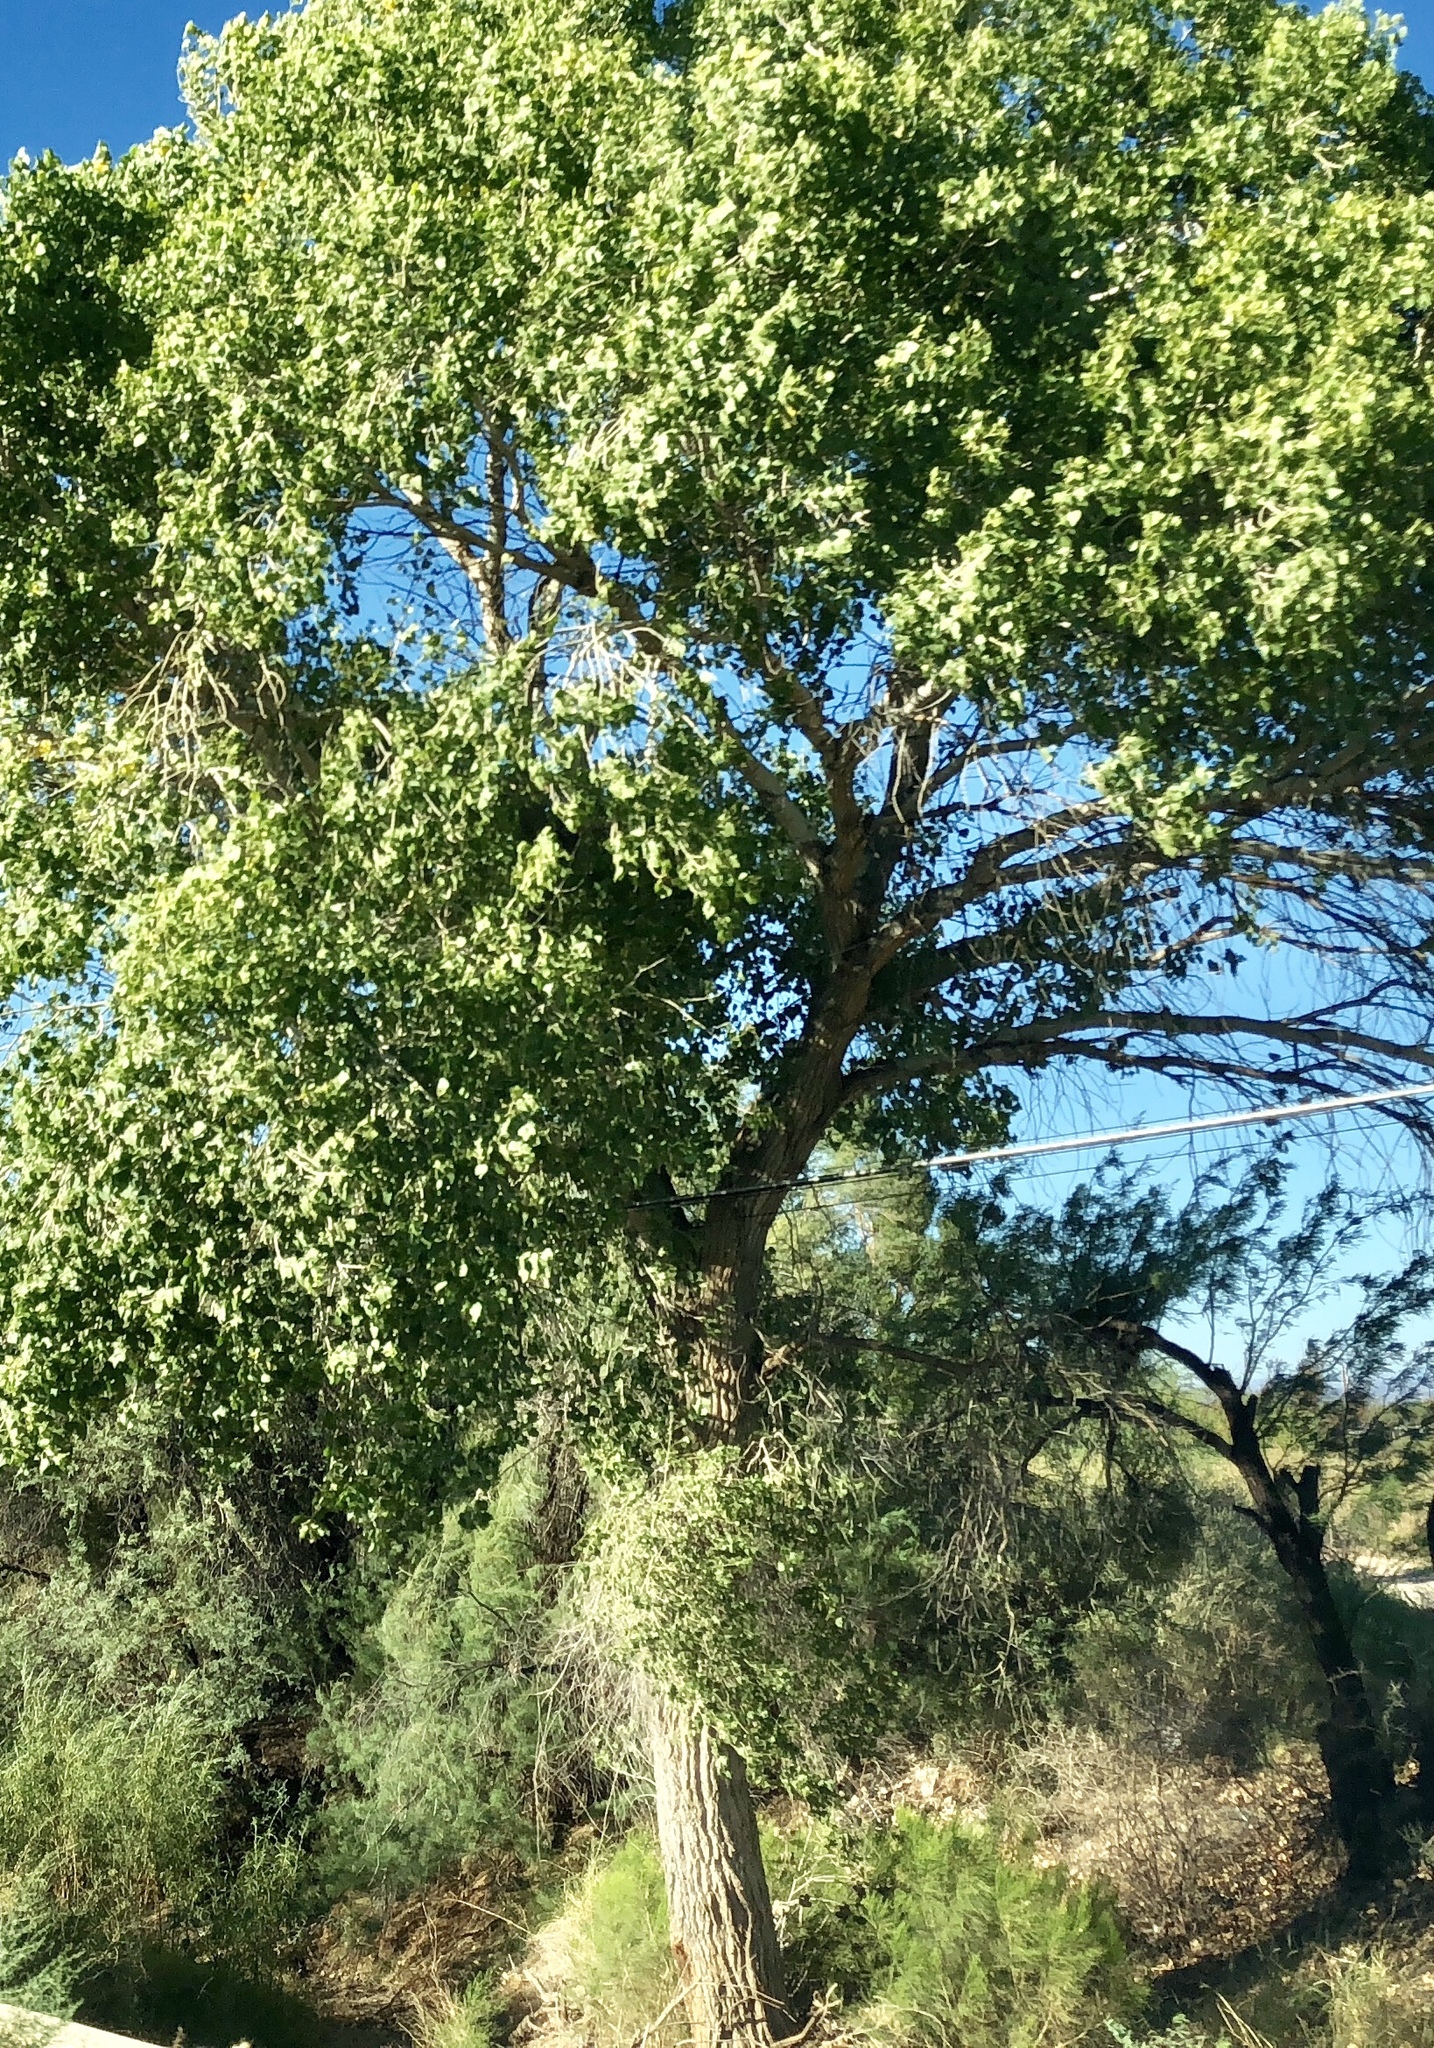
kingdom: Plantae
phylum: Tracheophyta
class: Magnoliopsida
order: Malpighiales
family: Salicaceae
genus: Populus
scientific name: Populus fremontii
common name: Fremont's cottonwood
